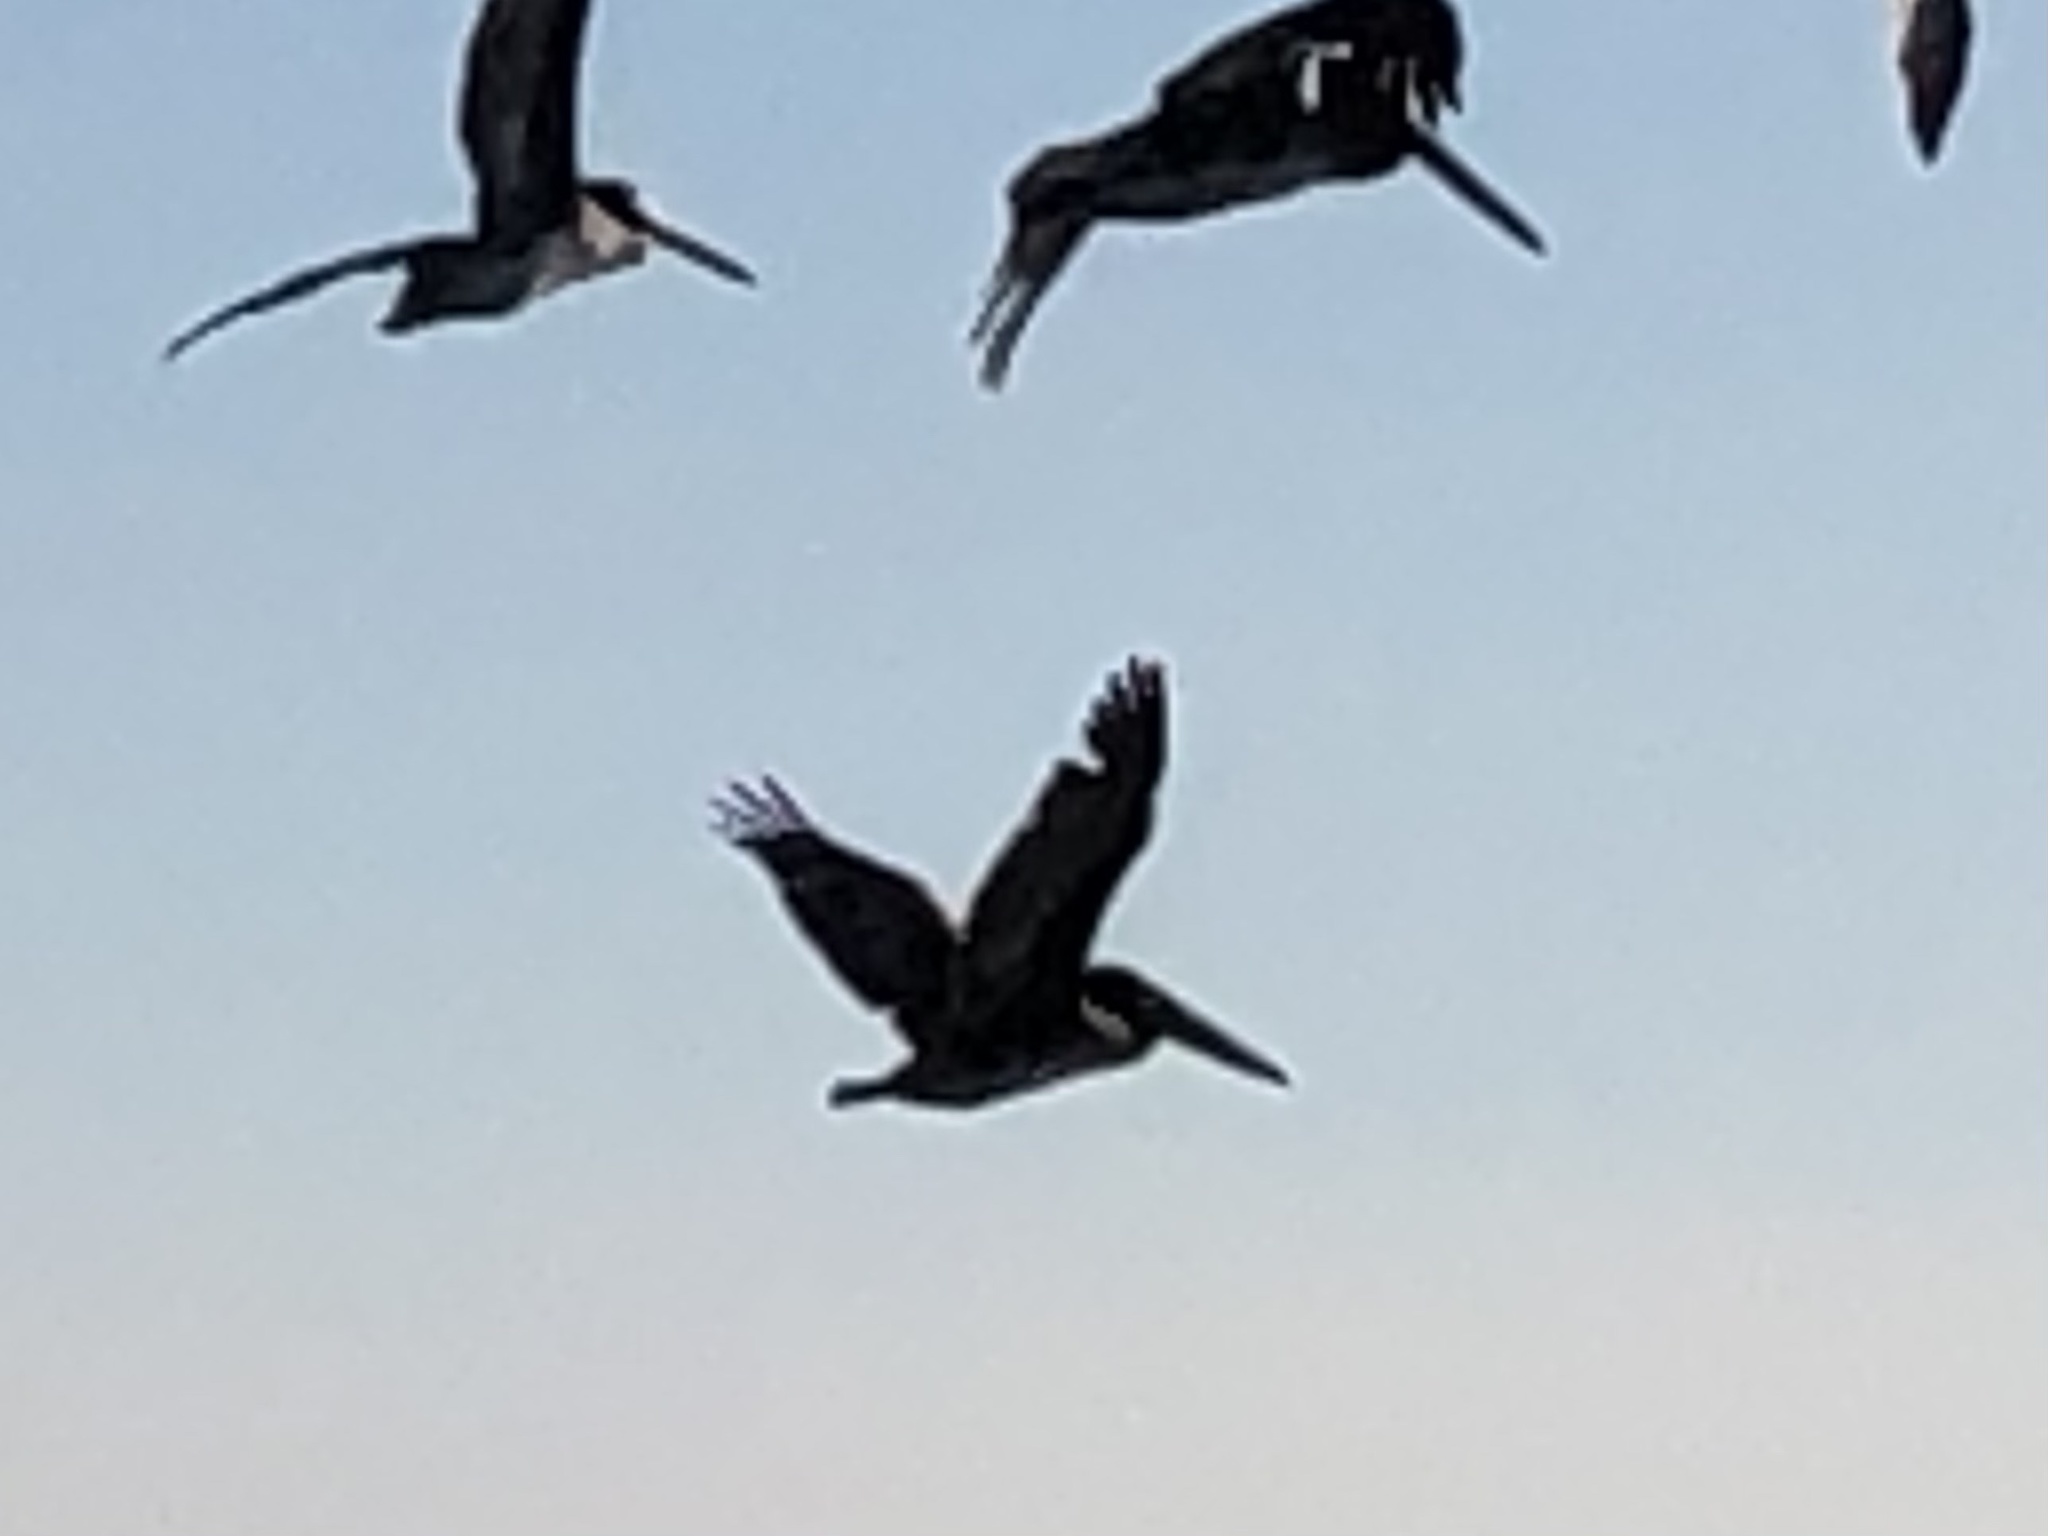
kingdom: Animalia
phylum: Chordata
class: Aves
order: Pelecaniformes
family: Pelecanidae
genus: Pelecanus
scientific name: Pelecanus occidentalis
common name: Brown pelican
